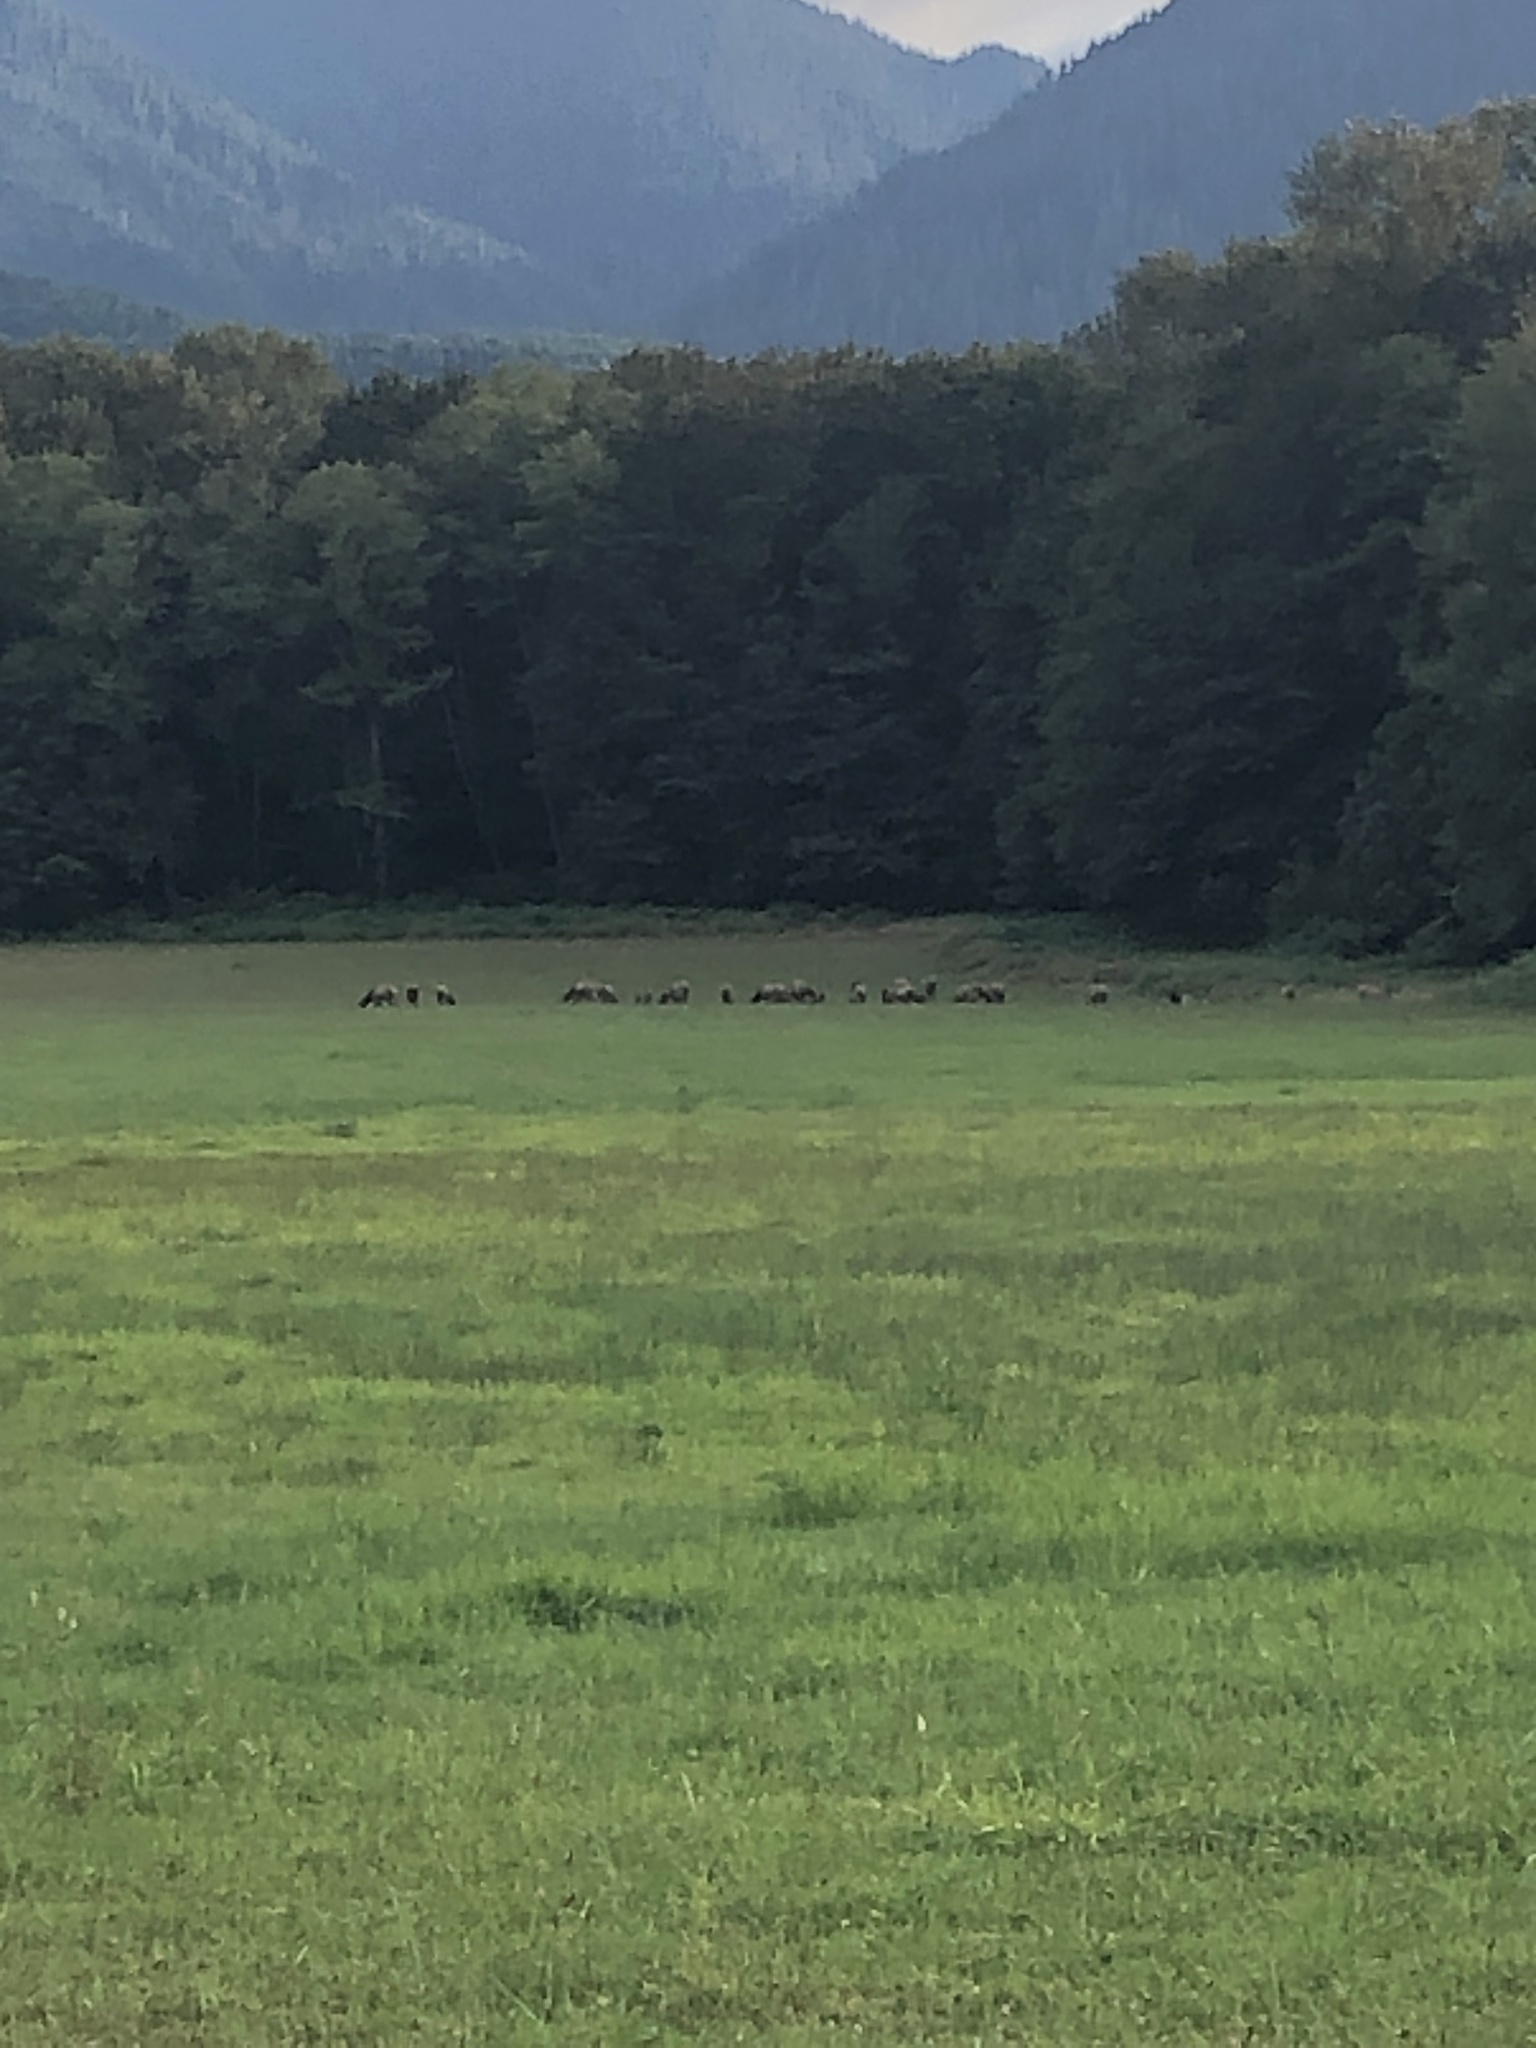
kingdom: Animalia
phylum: Chordata
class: Mammalia
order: Artiodactyla
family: Cervidae
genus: Cervus
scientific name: Cervus elaphus
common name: Red deer
